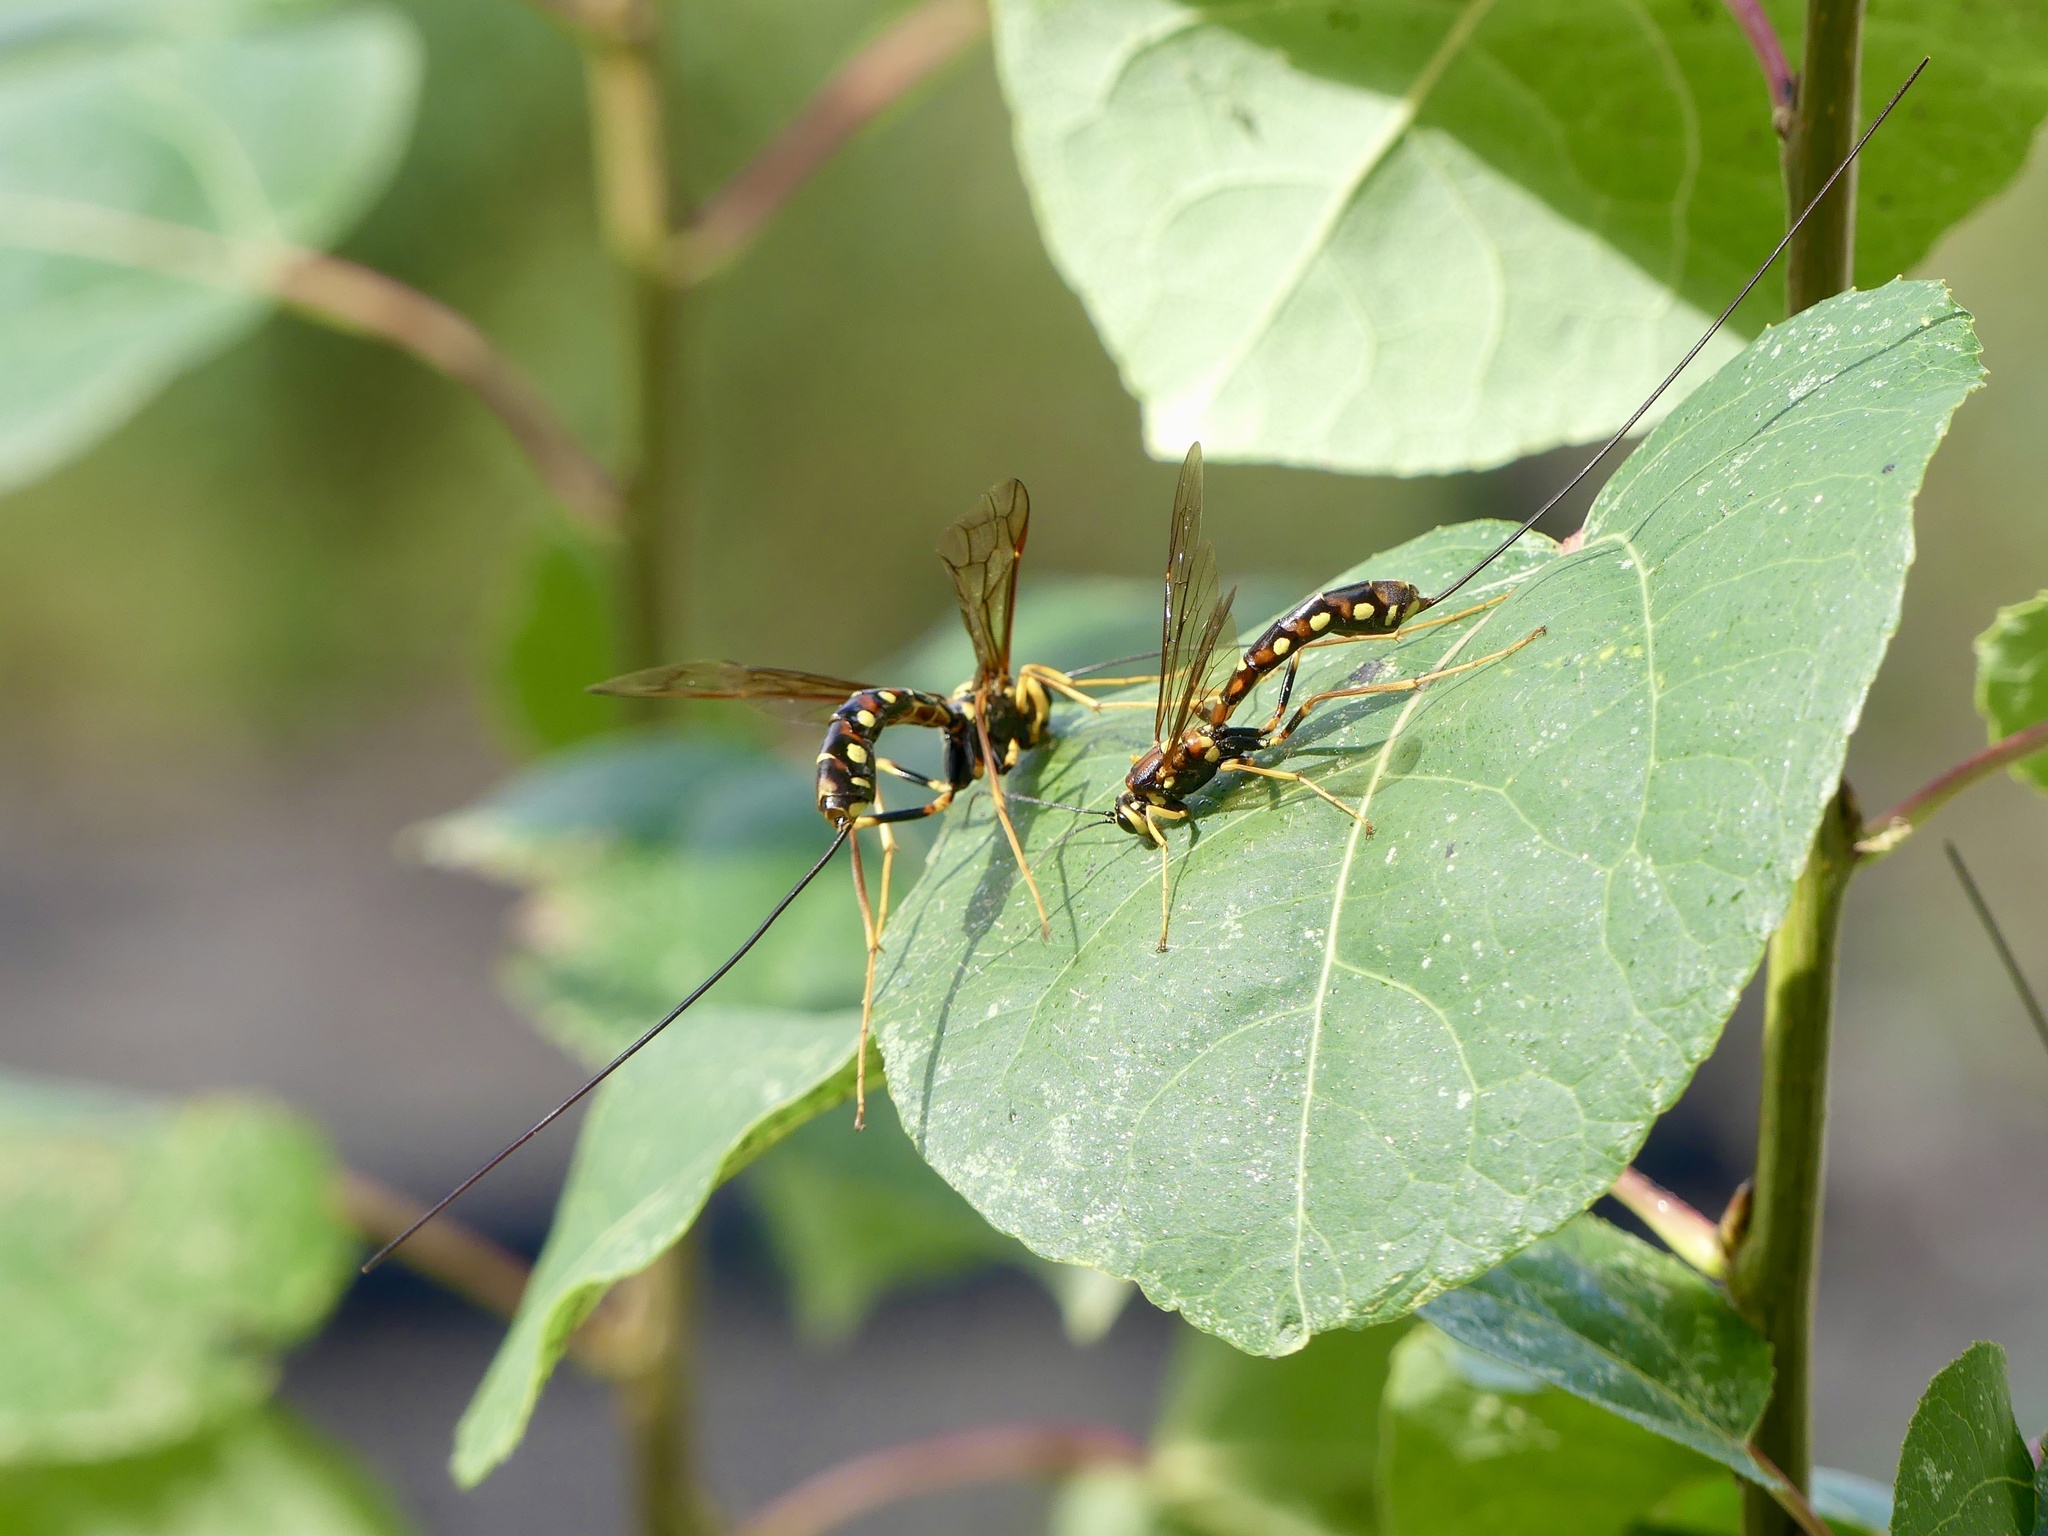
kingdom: Animalia
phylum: Arthropoda
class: Insecta
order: Hymenoptera
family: Ichneumonidae
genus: Megarhyssa
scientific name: Megarhyssa nortoni
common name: Norton's giant ichneumonid wasp
